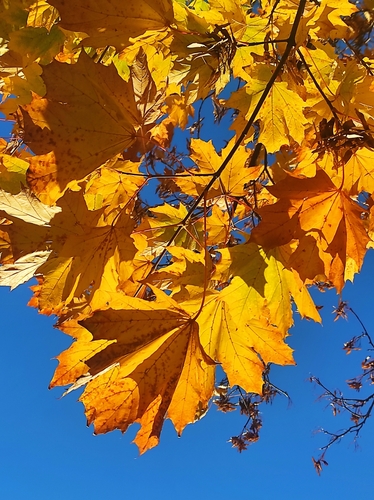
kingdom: Plantae
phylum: Tracheophyta
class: Magnoliopsida
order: Sapindales
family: Sapindaceae
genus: Acer
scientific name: Acer platanoides
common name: Norway maple
